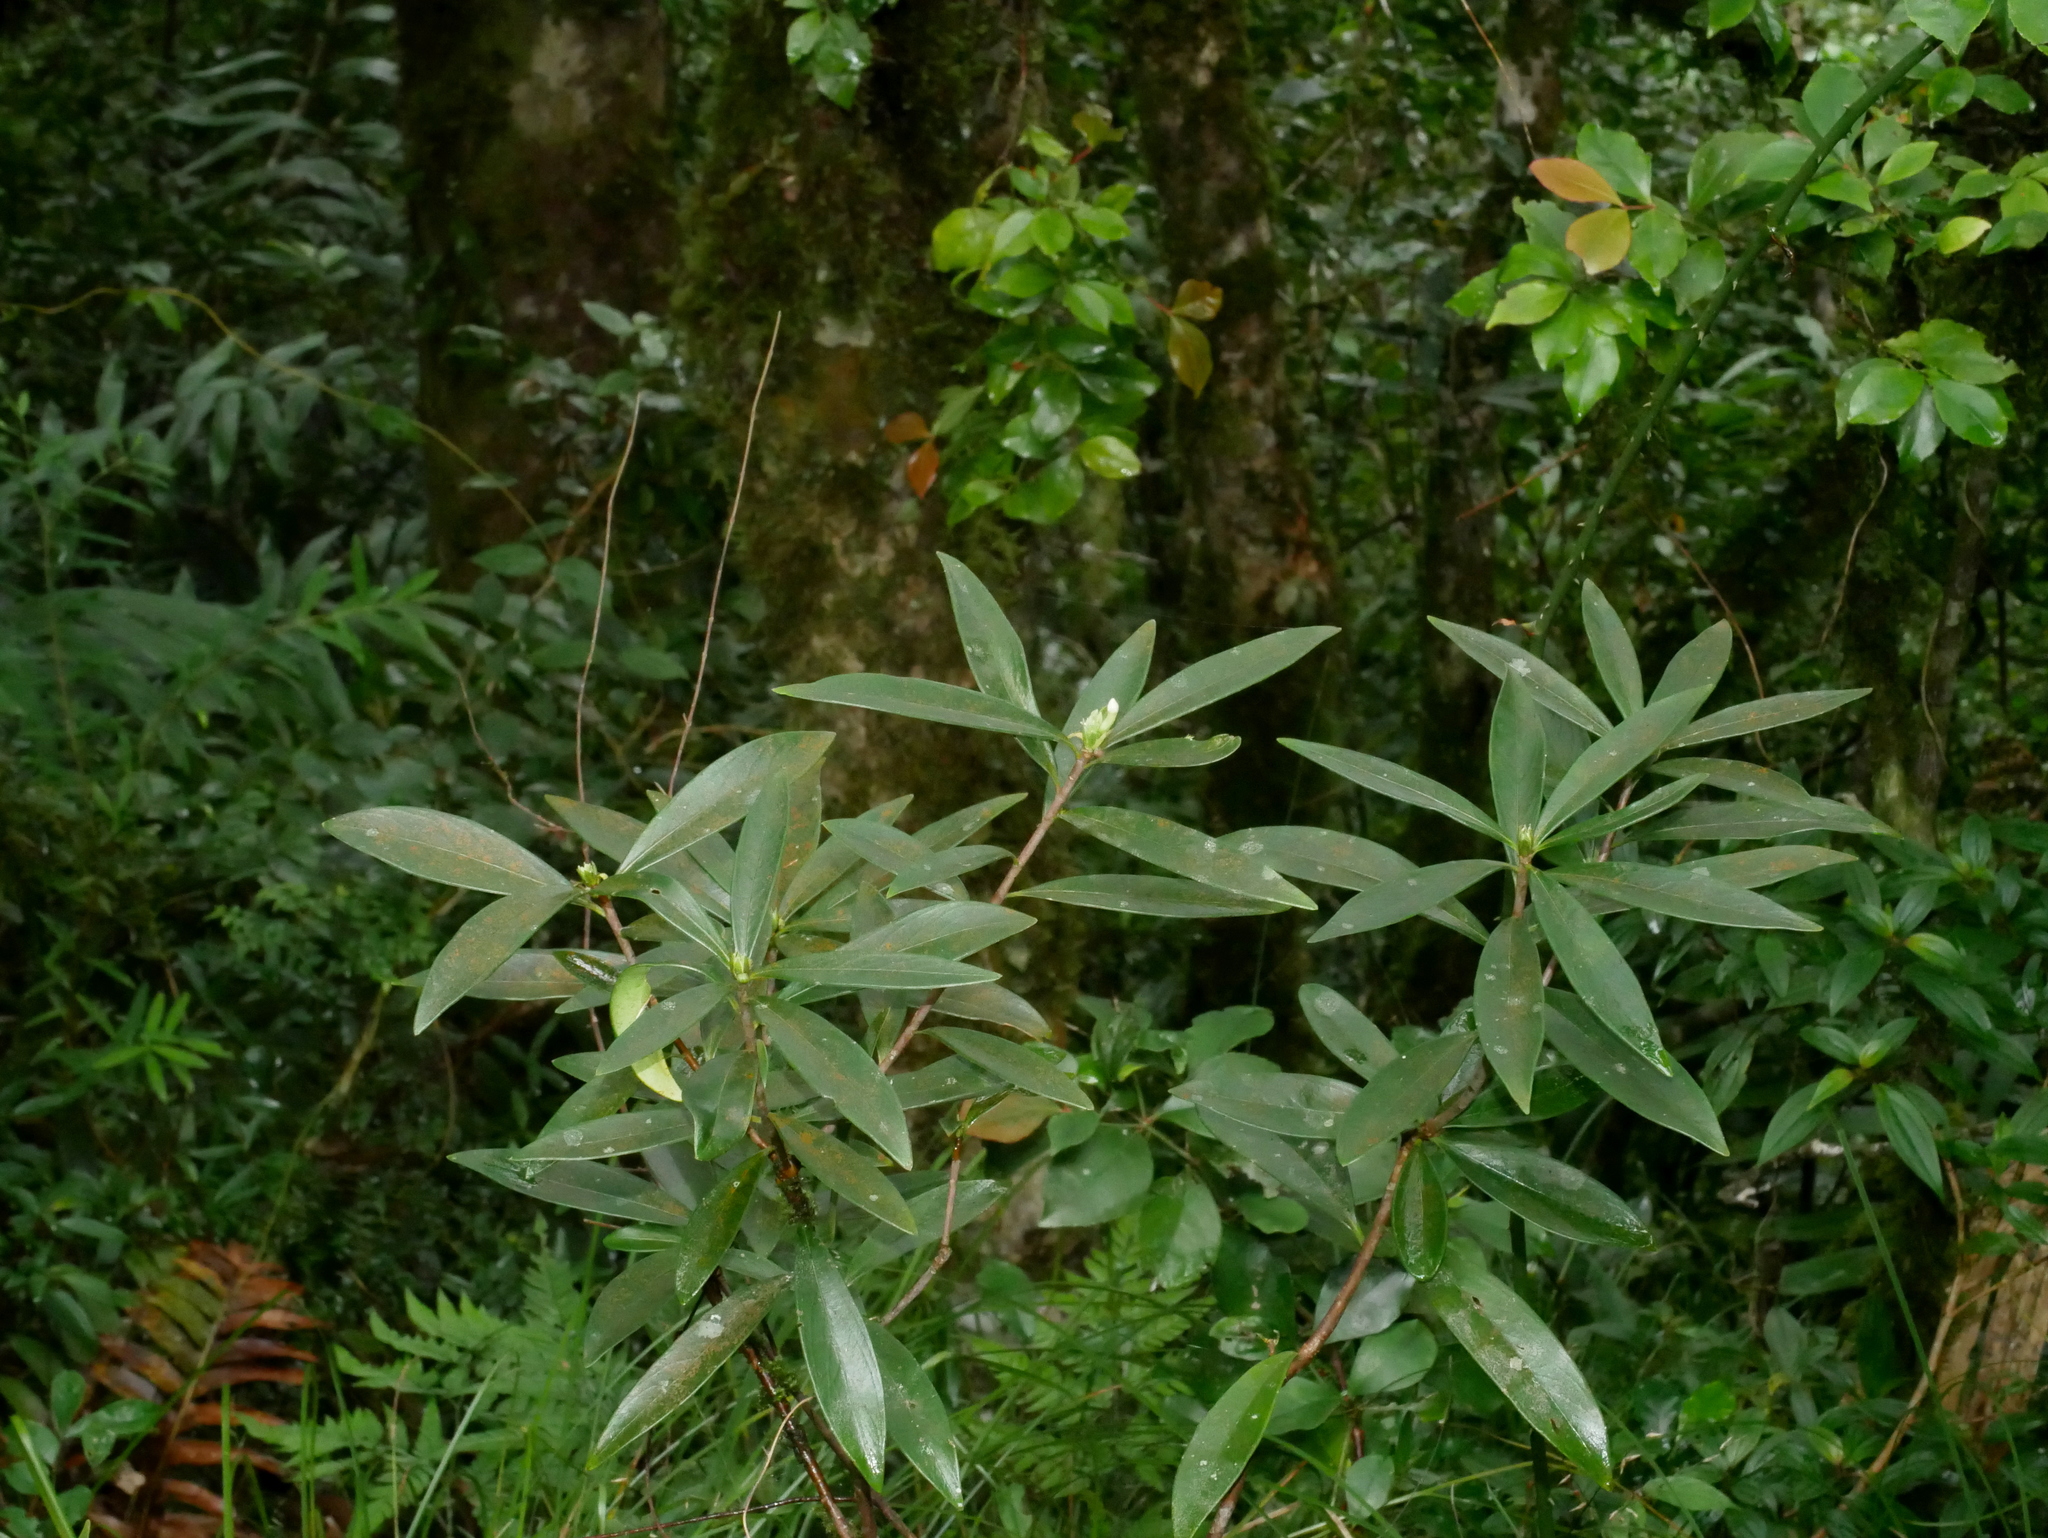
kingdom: Plantae
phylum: Tracheophyta
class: Magnoliopsida
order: Malvales
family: Thymelaeaceae
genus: Daphne
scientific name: Daphne arisanensis
